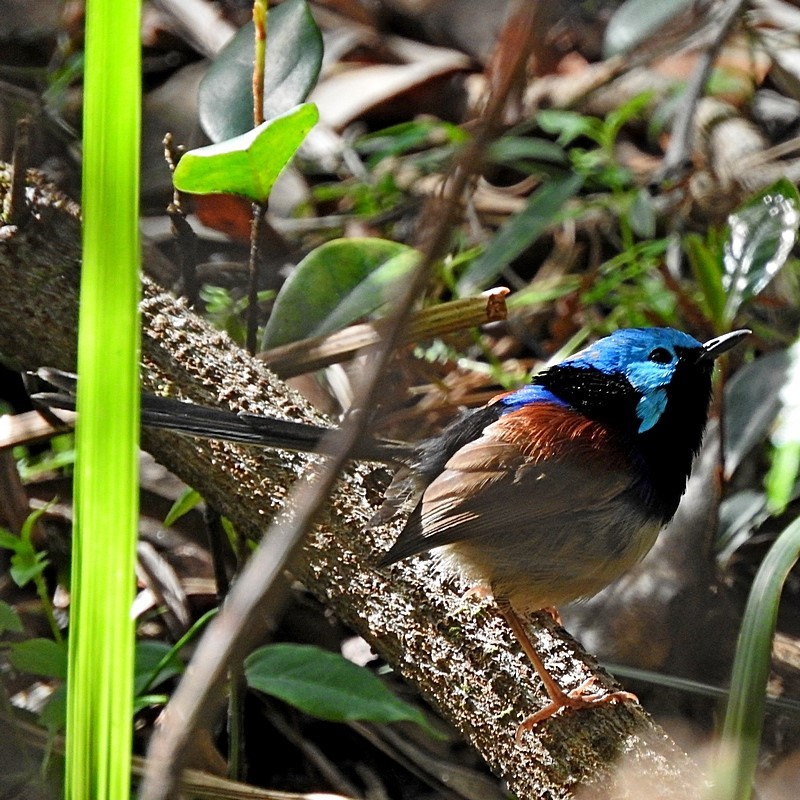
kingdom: Animalia
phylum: Chordata
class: Aves
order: Passeriformes
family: Maluridae
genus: Malurus
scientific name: Malurus lamberti
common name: Variegated fairywren
